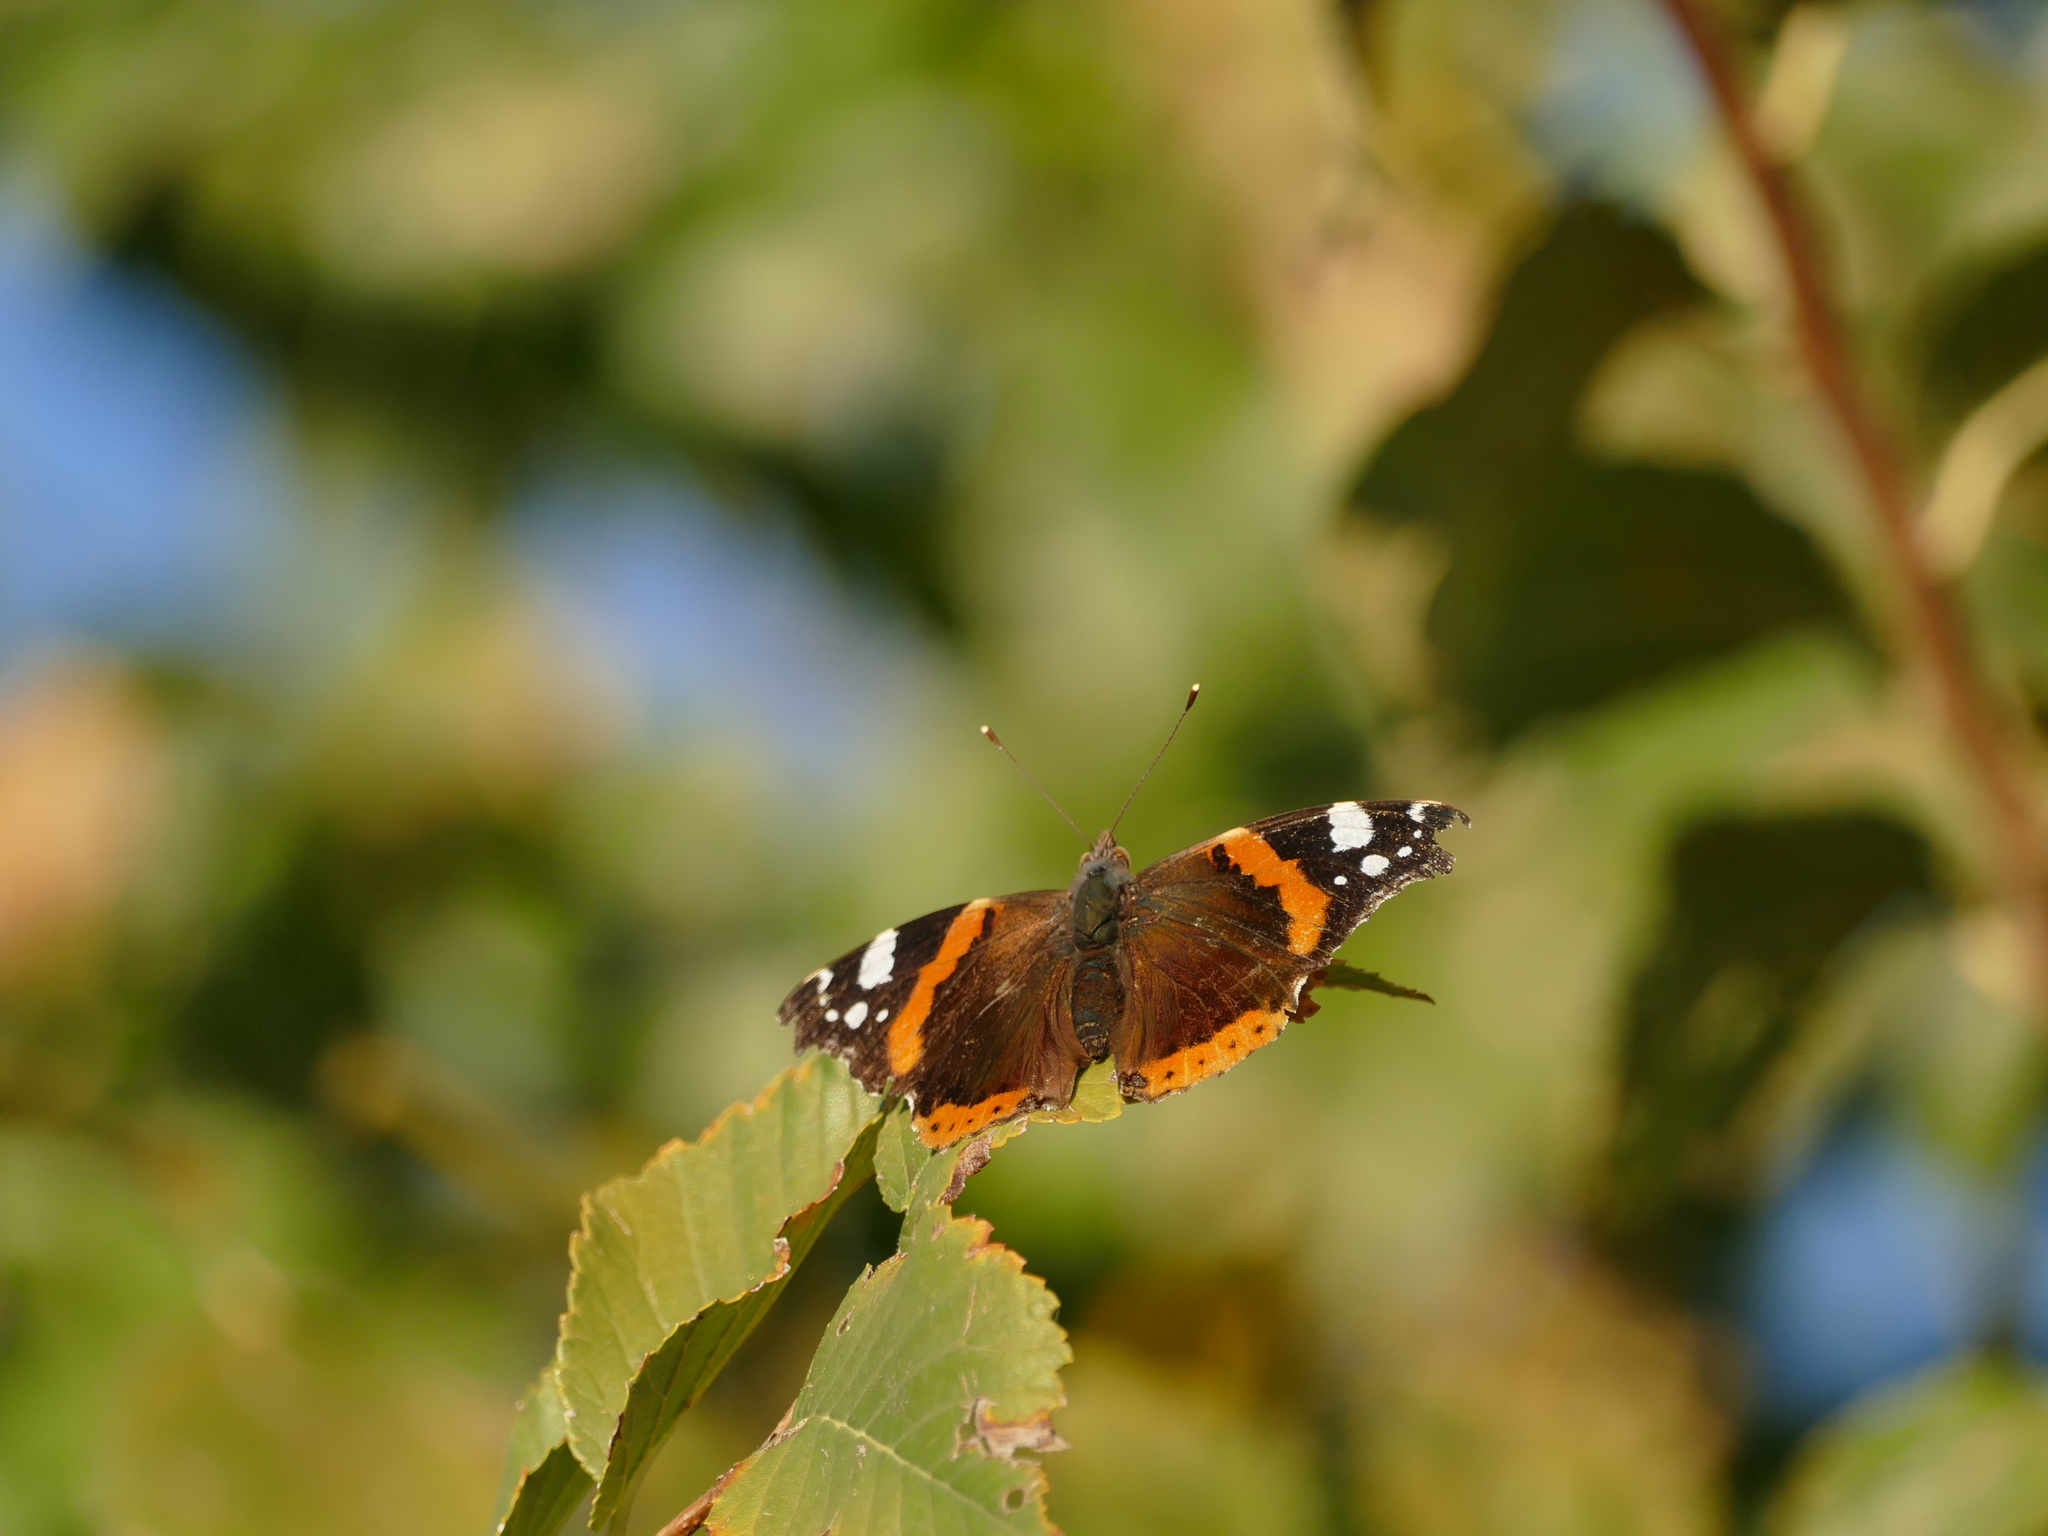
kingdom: Animalia
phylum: Arthropoda
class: Insecta
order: Lepidoptera
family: Nymphalidae
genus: Vanessa
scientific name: Vanessa atalanta
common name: Red admiral
